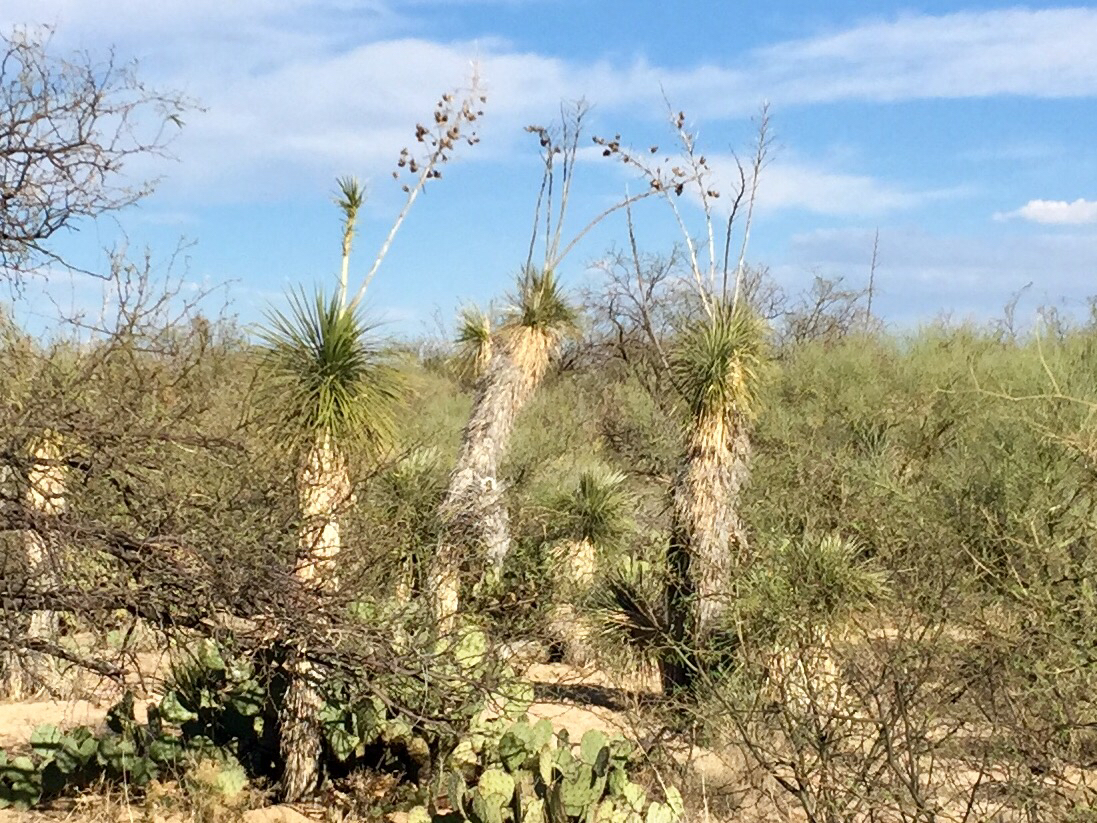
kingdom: Plantae
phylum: Tracheophyta
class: Liliopsida
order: Asparagales
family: Asparagaceae
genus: Yucca
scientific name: Yucca elata
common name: Palmella
